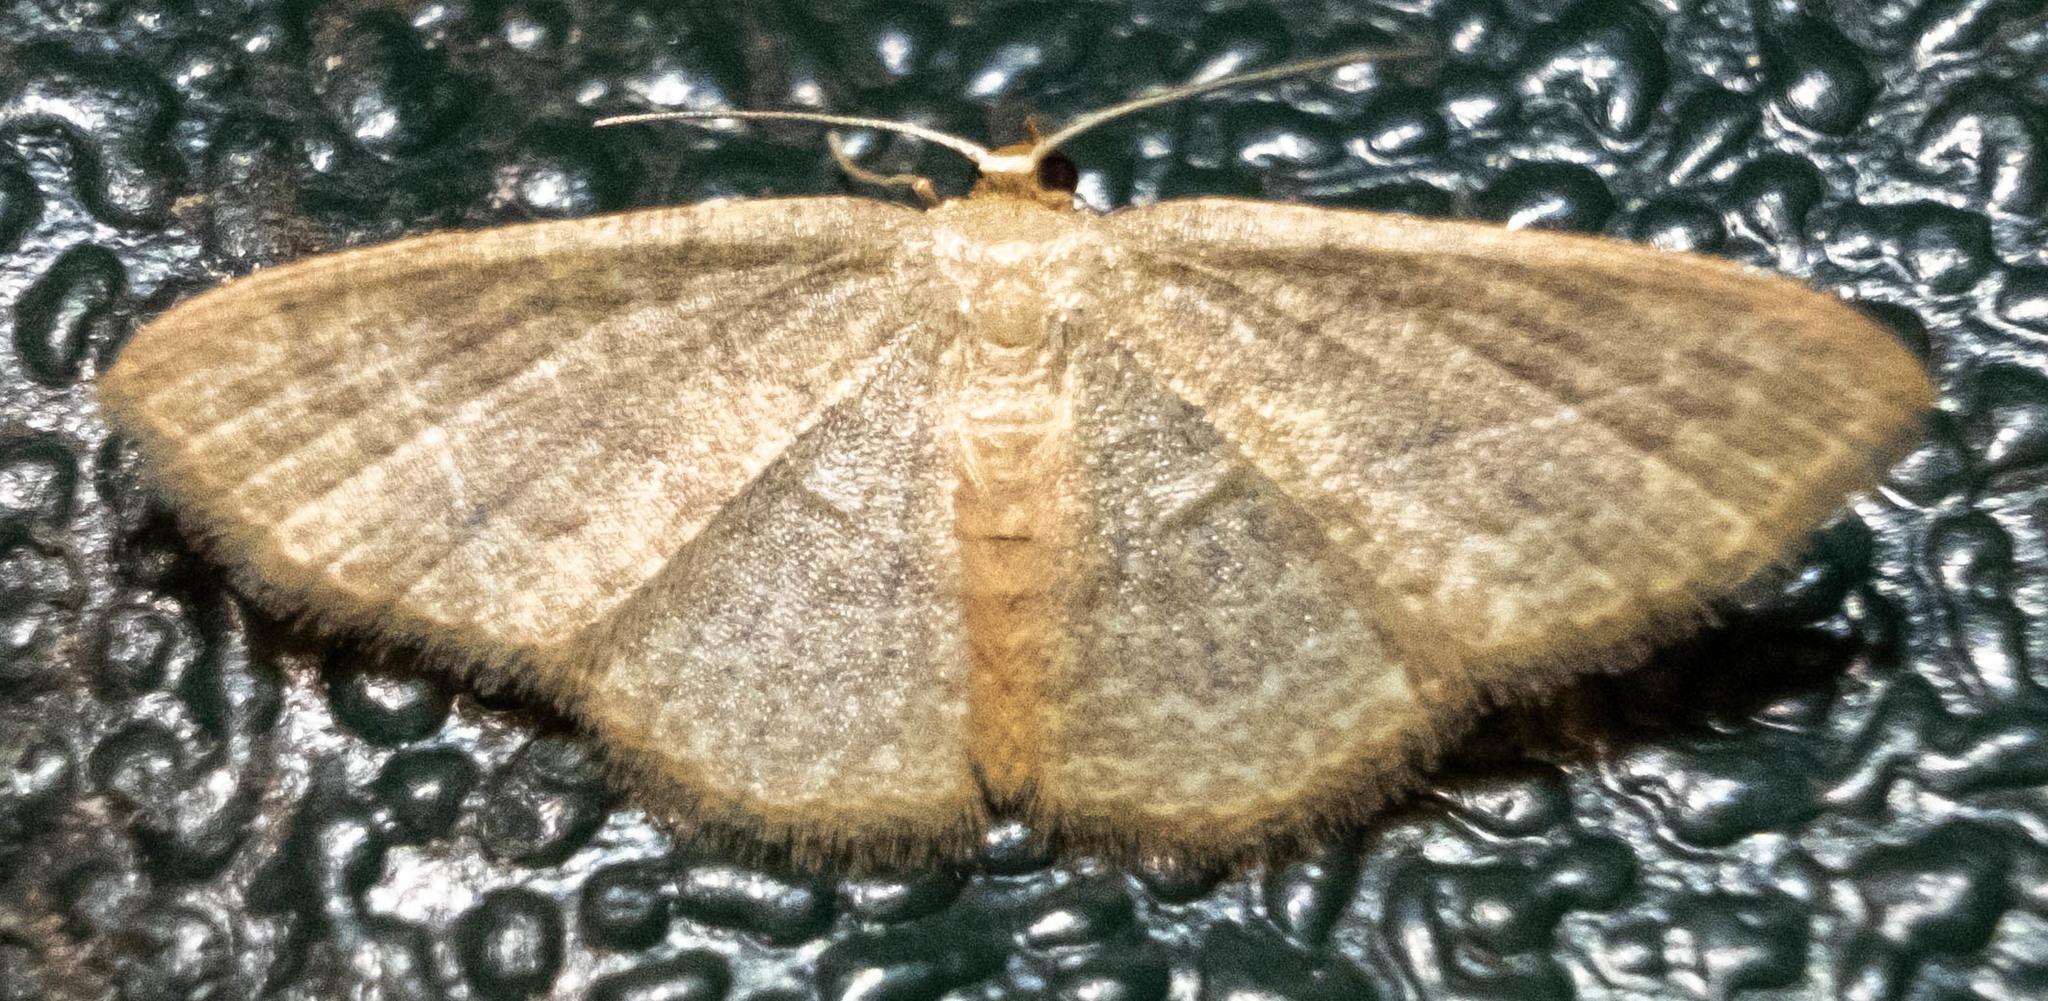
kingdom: Animalia
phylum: Arthropoda
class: Insecta
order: Lepidoptera
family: Geometridae
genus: Pleuroprucha
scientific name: Pleuroprucha insulsaria
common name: Common tan wave
